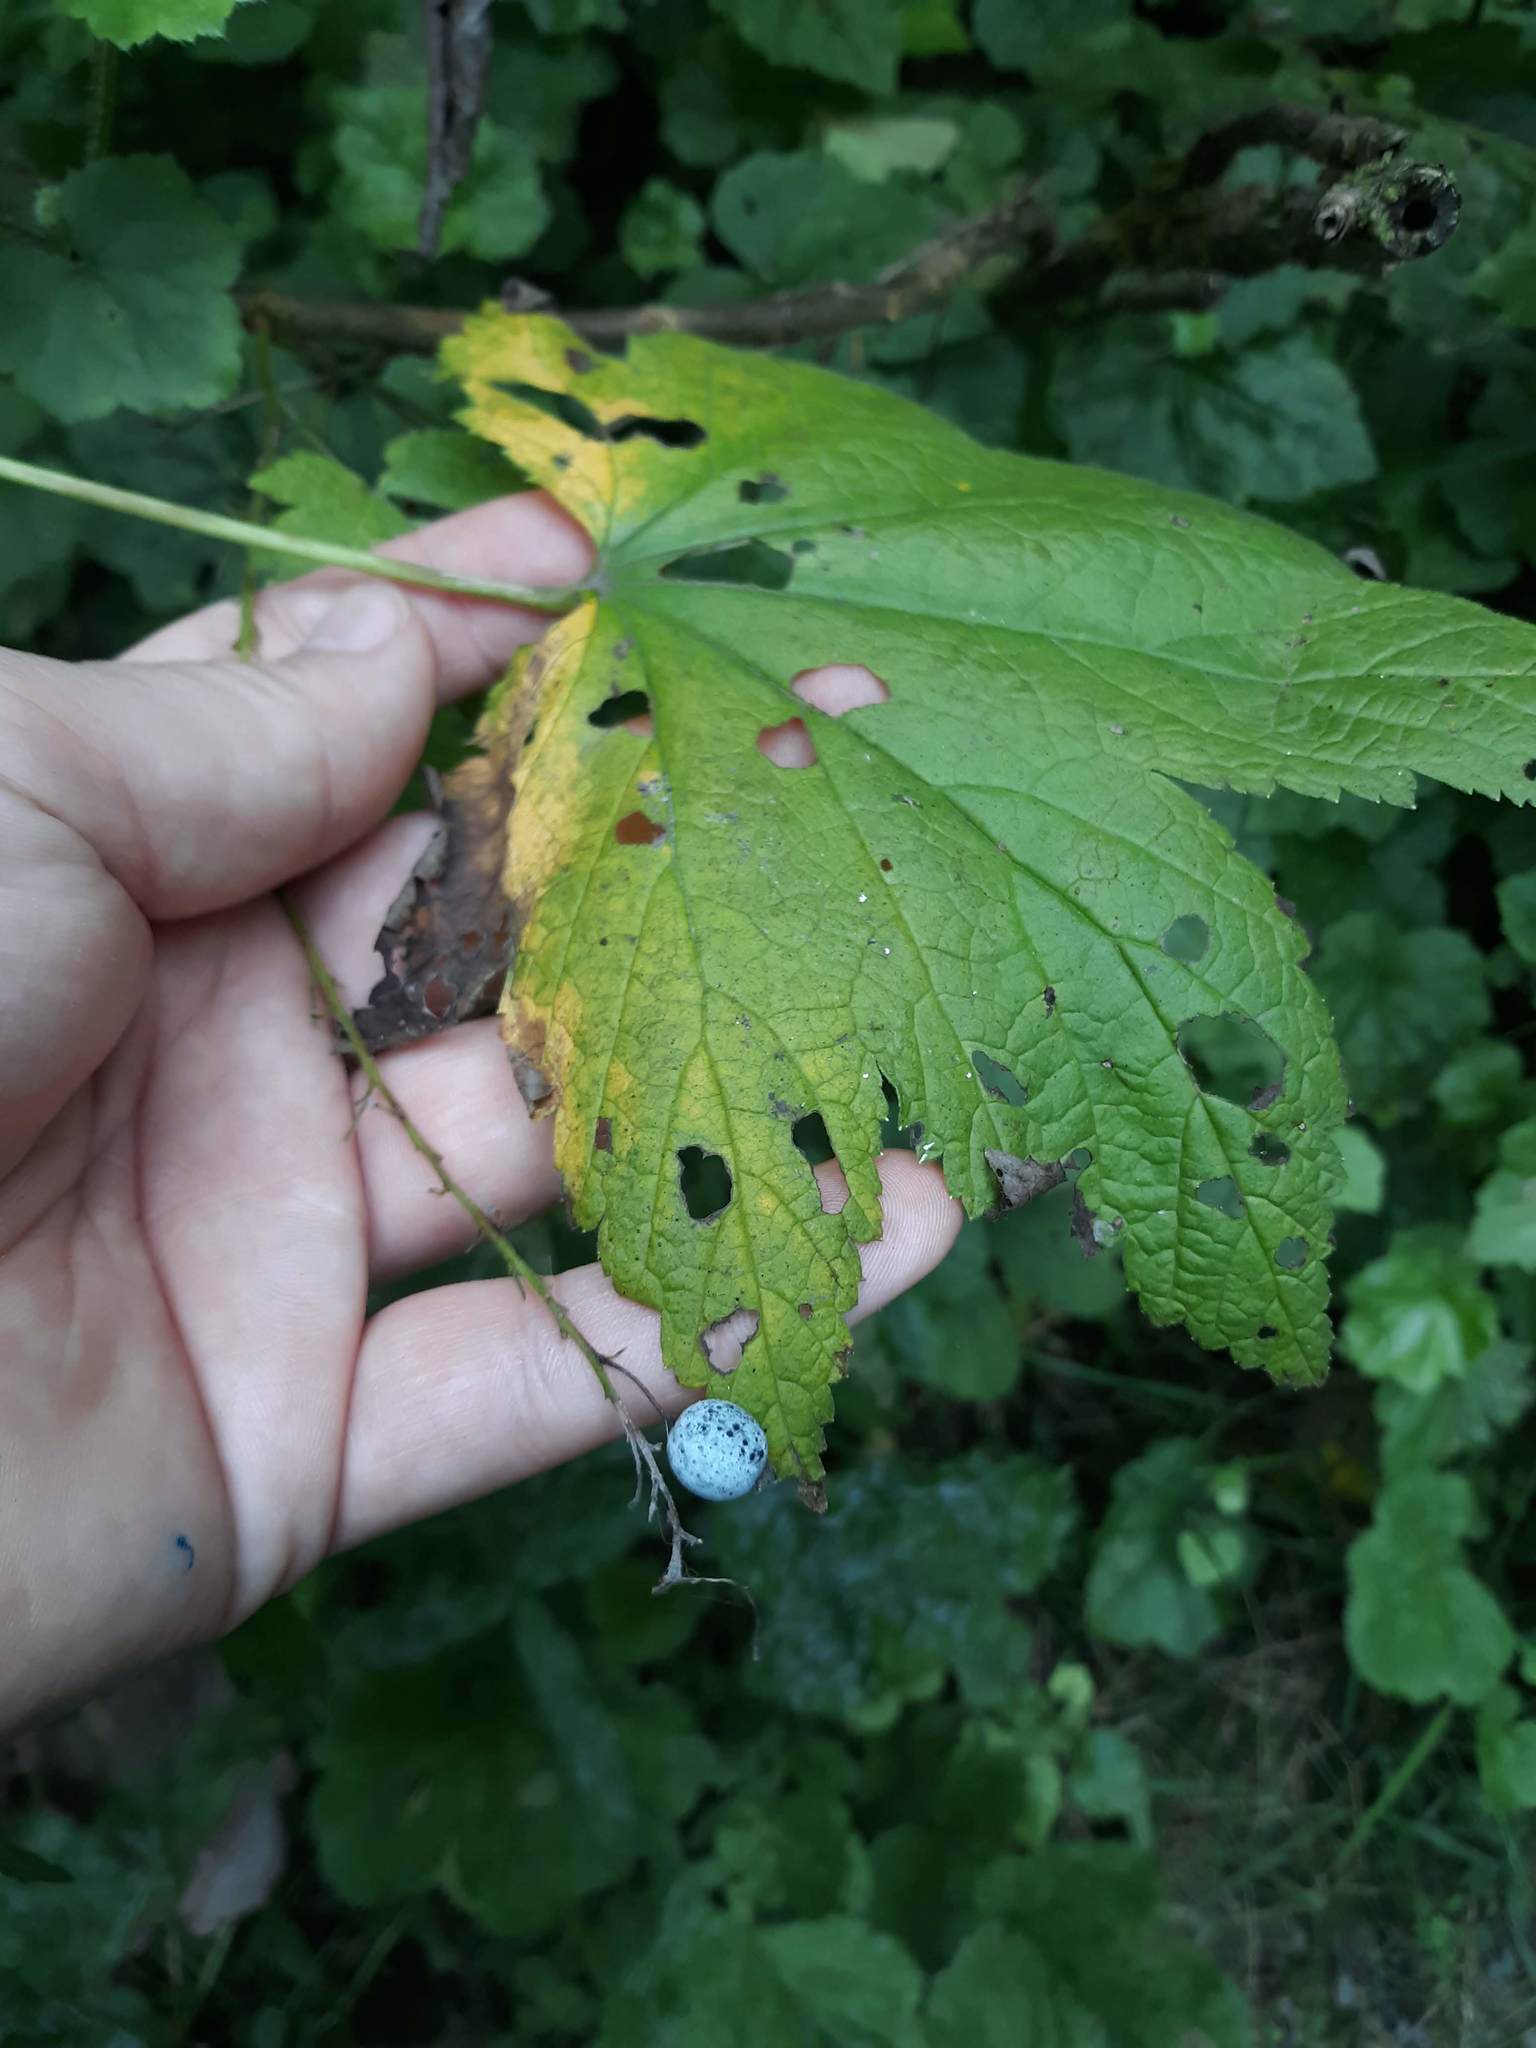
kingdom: Plantae
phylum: Tracheophyta
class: Magnoliopsida
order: Saxifragales
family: Grossulariaceae
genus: Ribes
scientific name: Ribes bracteosum
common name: California black currant
